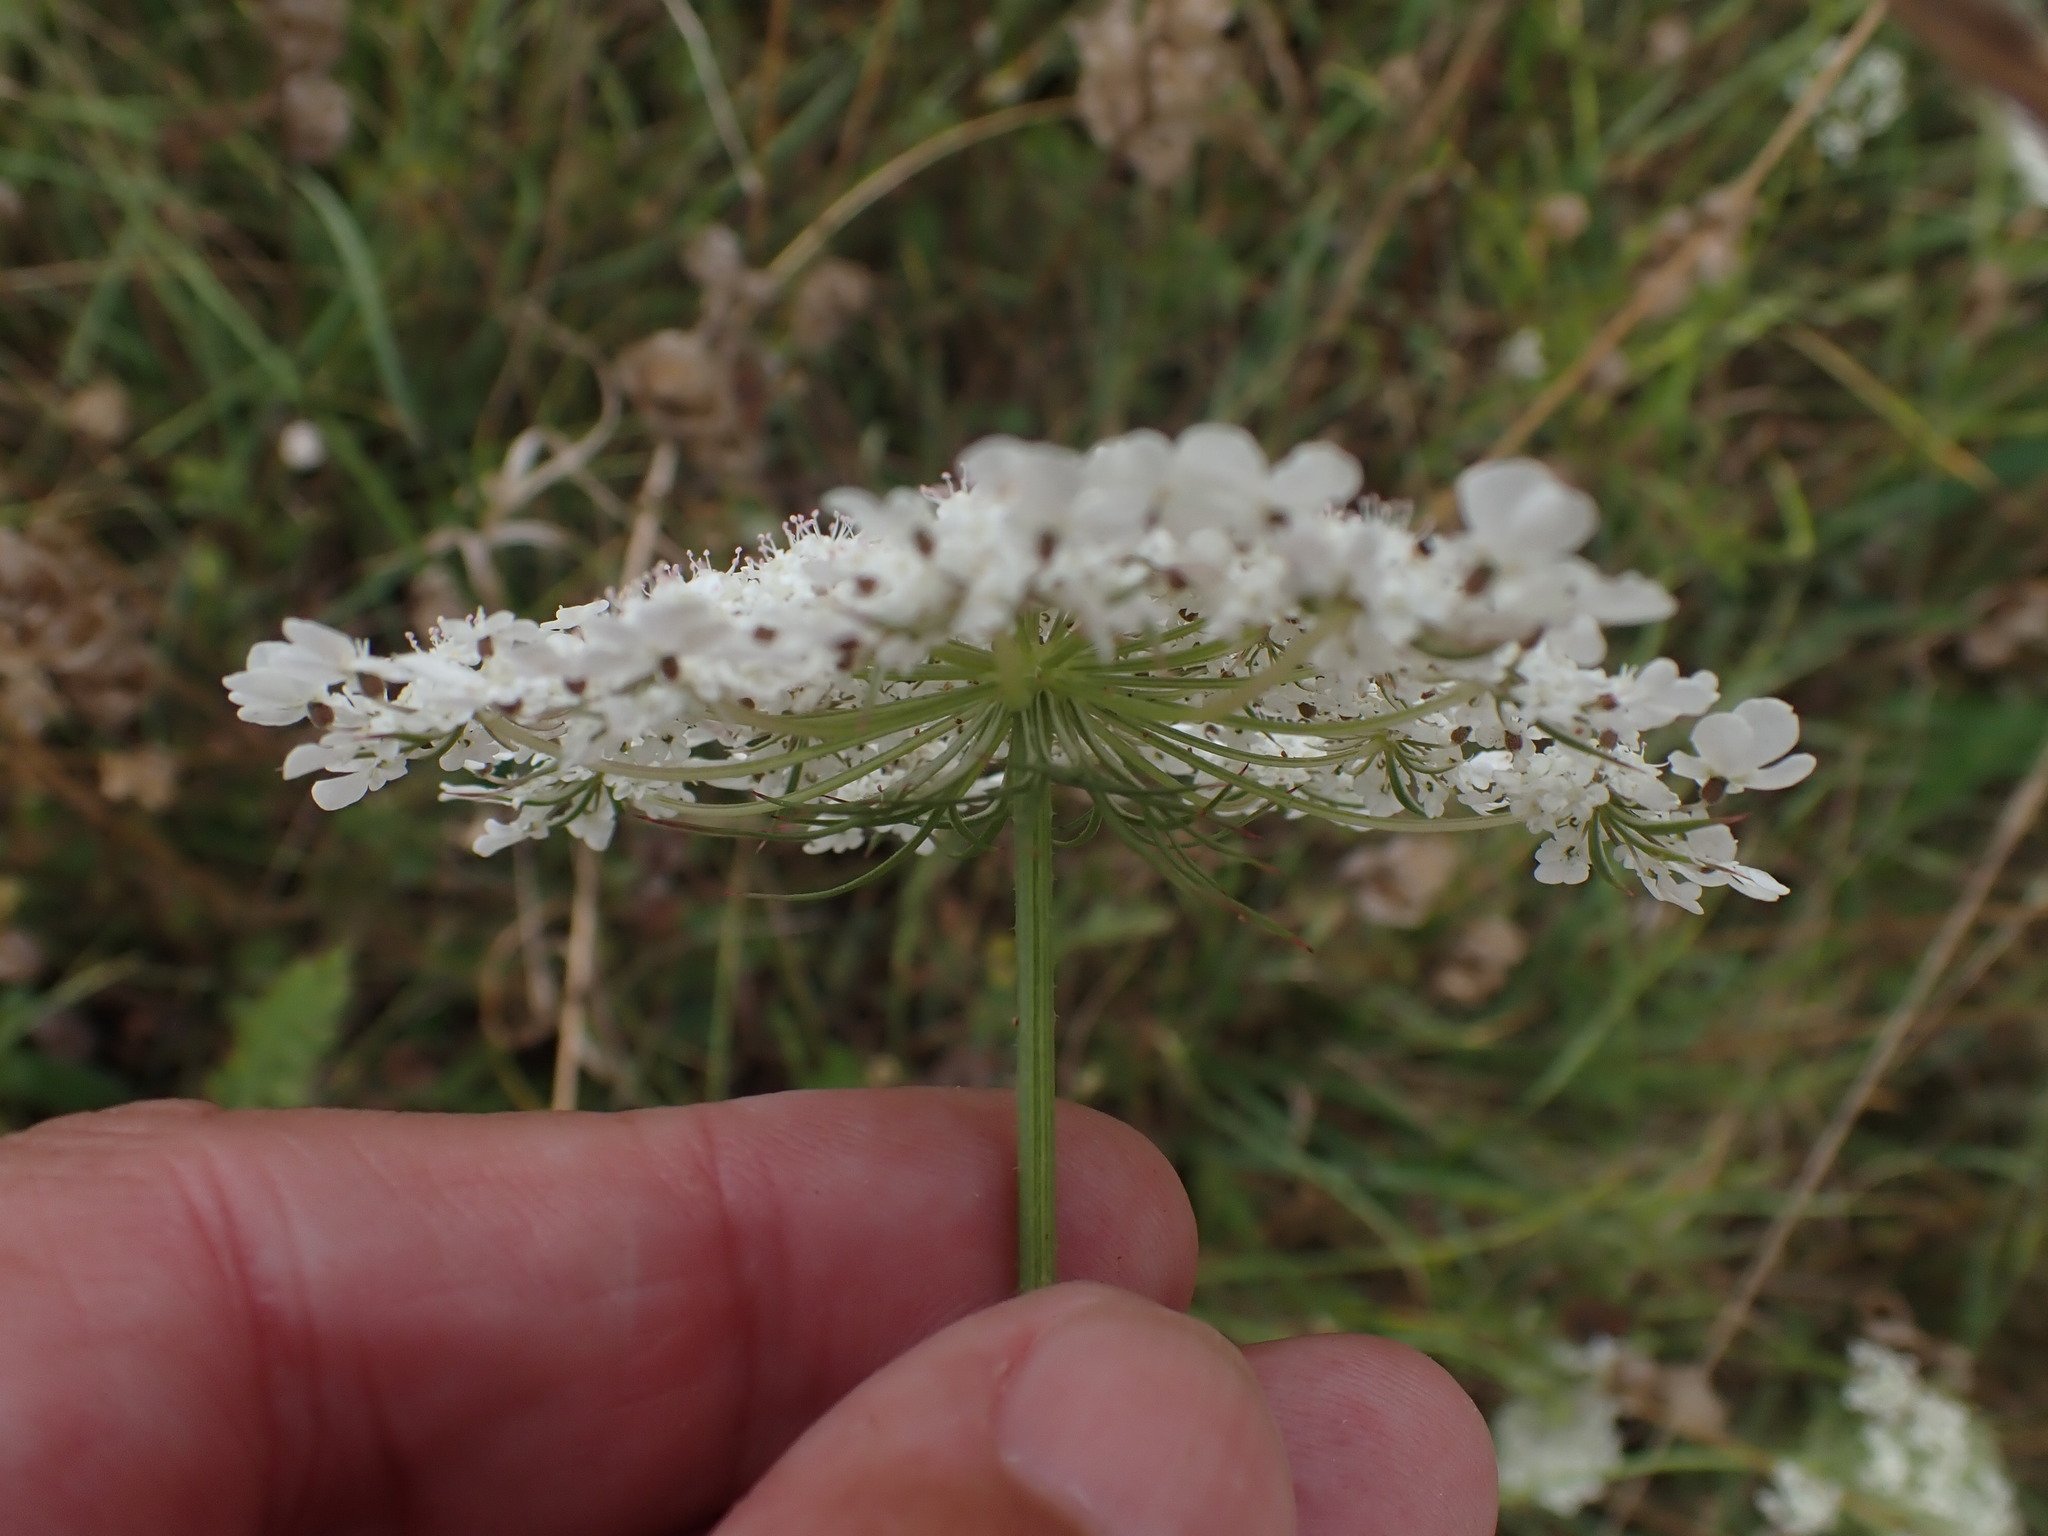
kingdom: Plantae
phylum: Tracheophyta
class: Magnoliopsida
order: Apiales
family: Apiaceae
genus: Daucus
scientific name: Daucus carota
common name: Wild carrot
